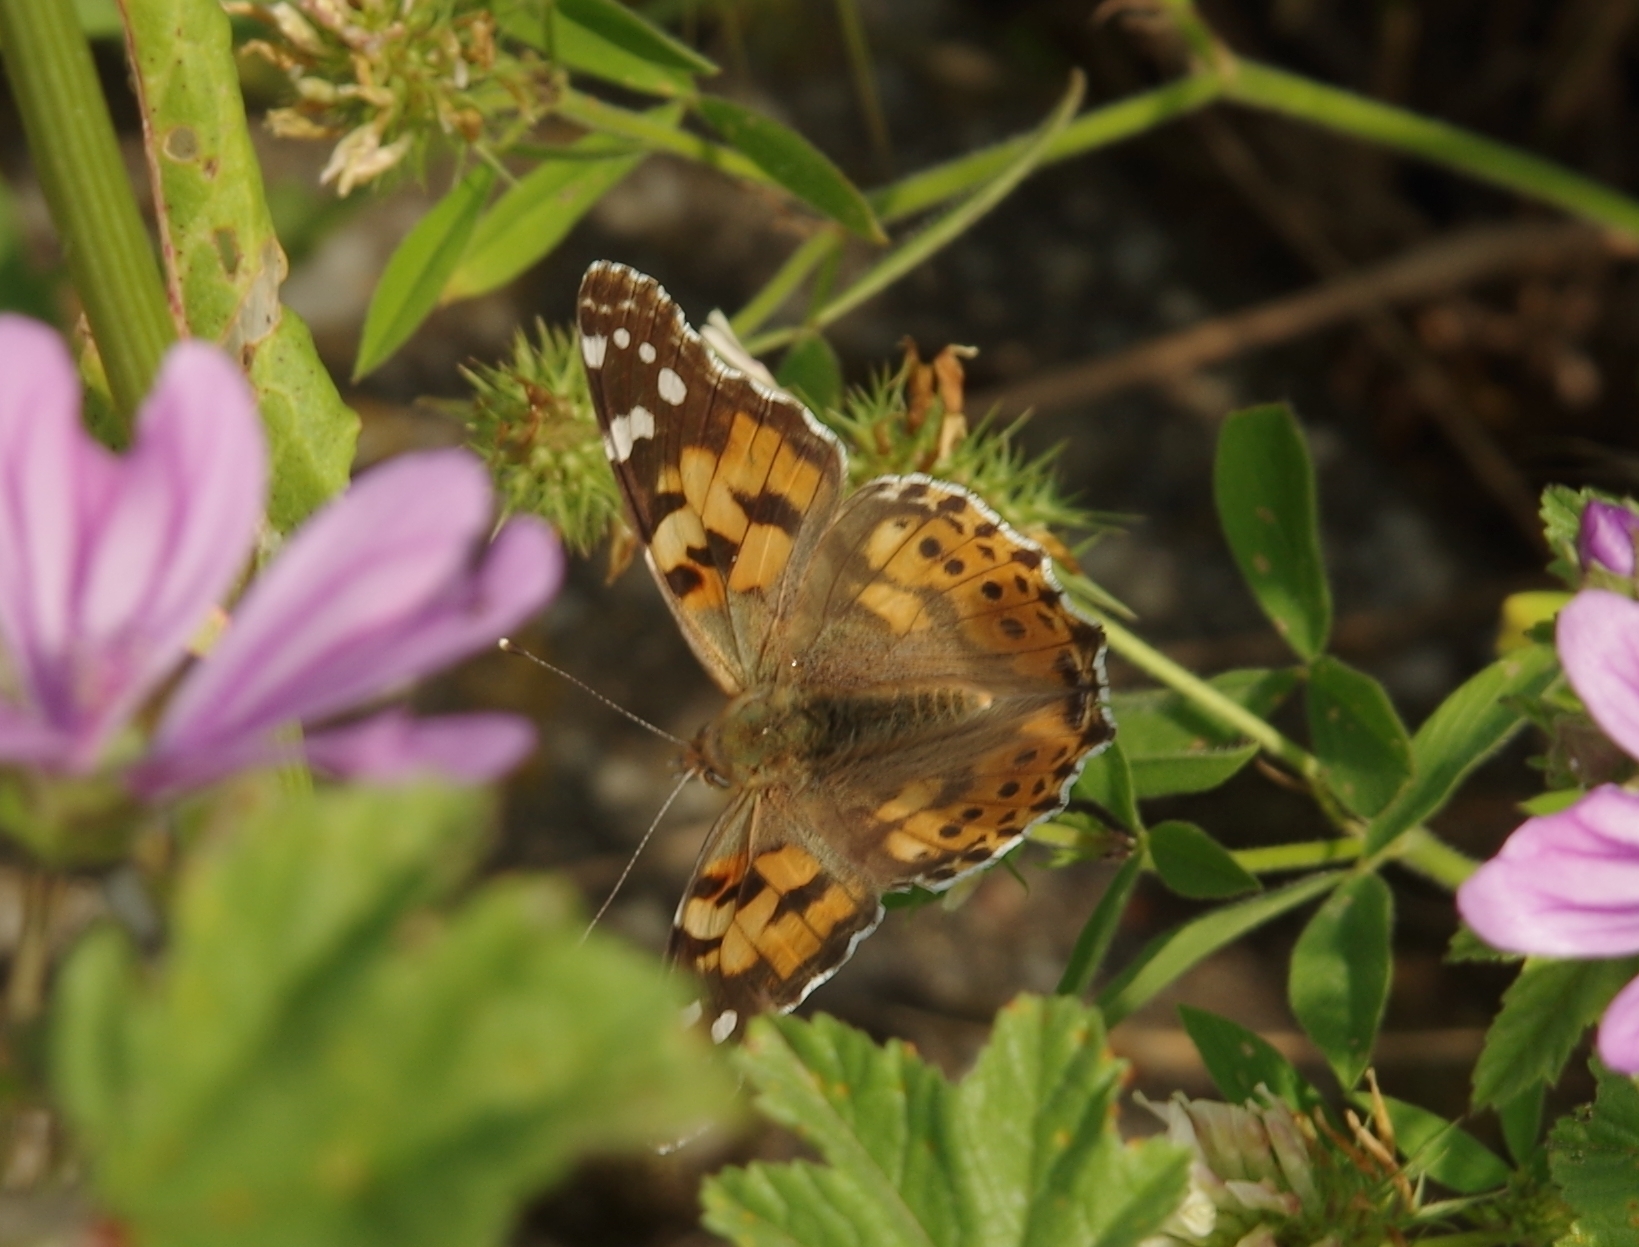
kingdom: Animalia
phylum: Arthropoda
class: Insecta
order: Lepidoptera
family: Nymphalidae
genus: Vanessa
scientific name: Vanessa cardui
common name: Painted lady
